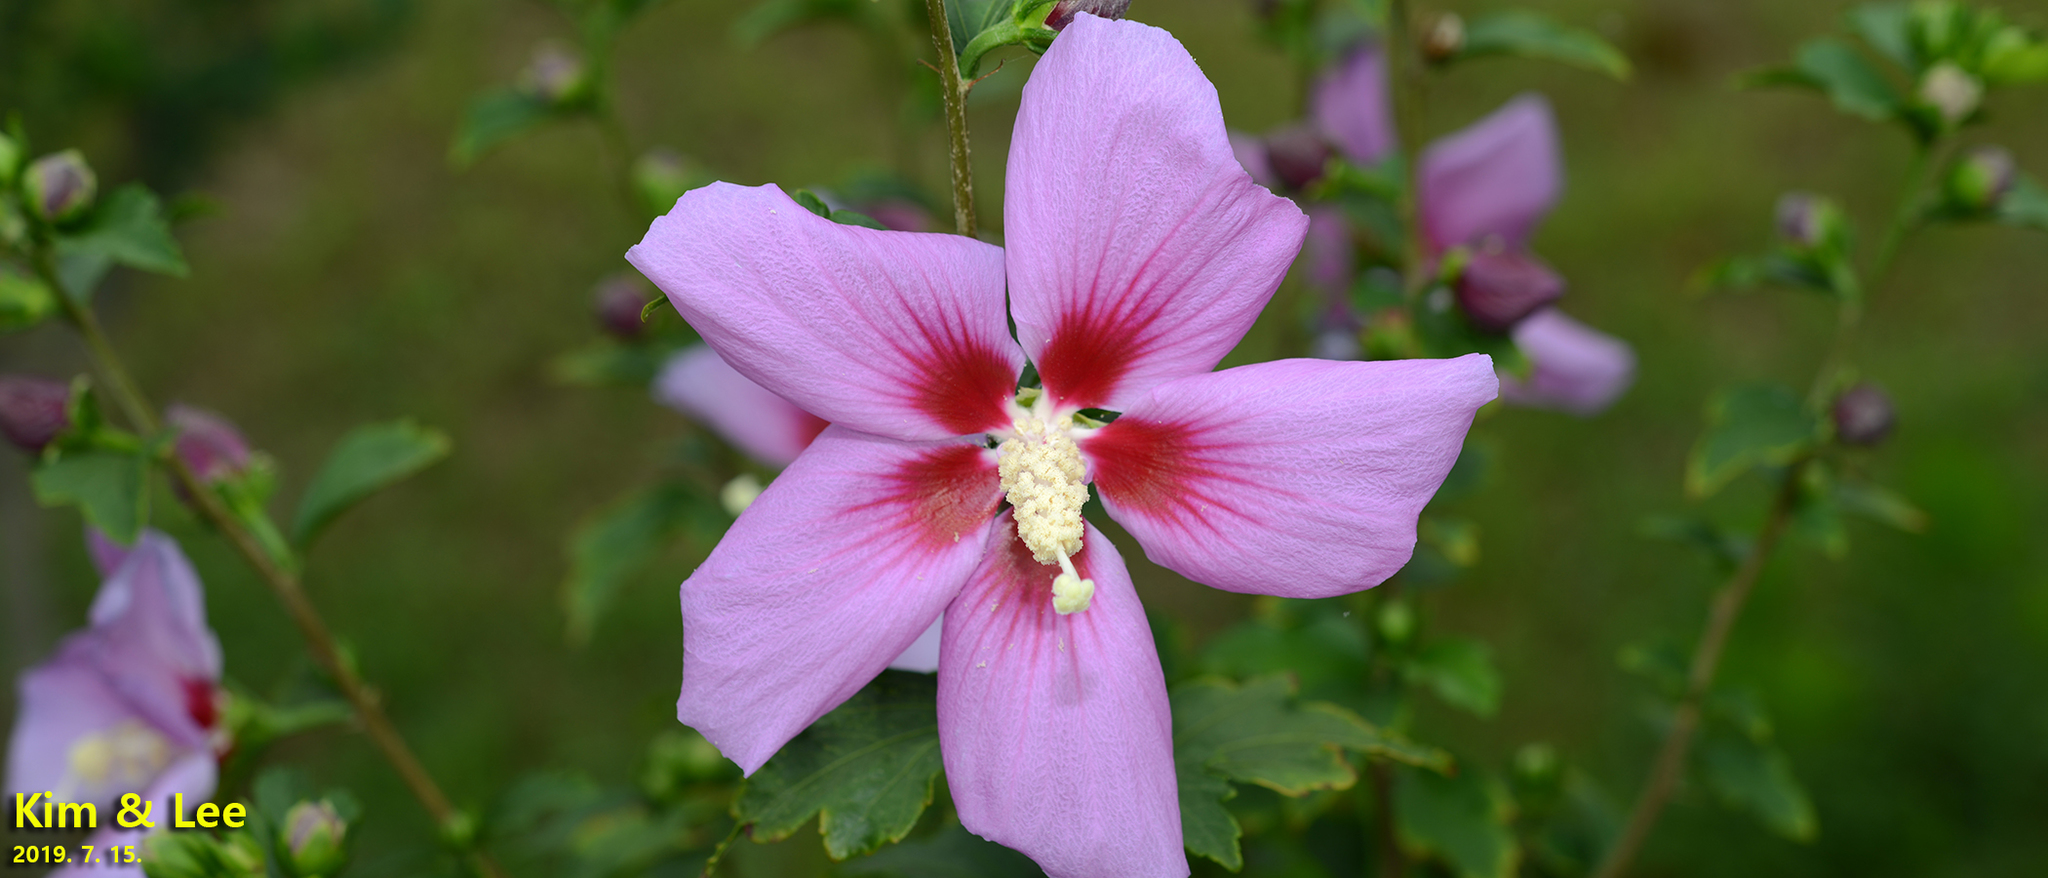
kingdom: Plantae
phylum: Tracheophyta
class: Magnoliopsida
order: Malvales
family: Malvaceae
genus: Hibiscus
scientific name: Hibiscus syriacus
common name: Syrian ketmia
